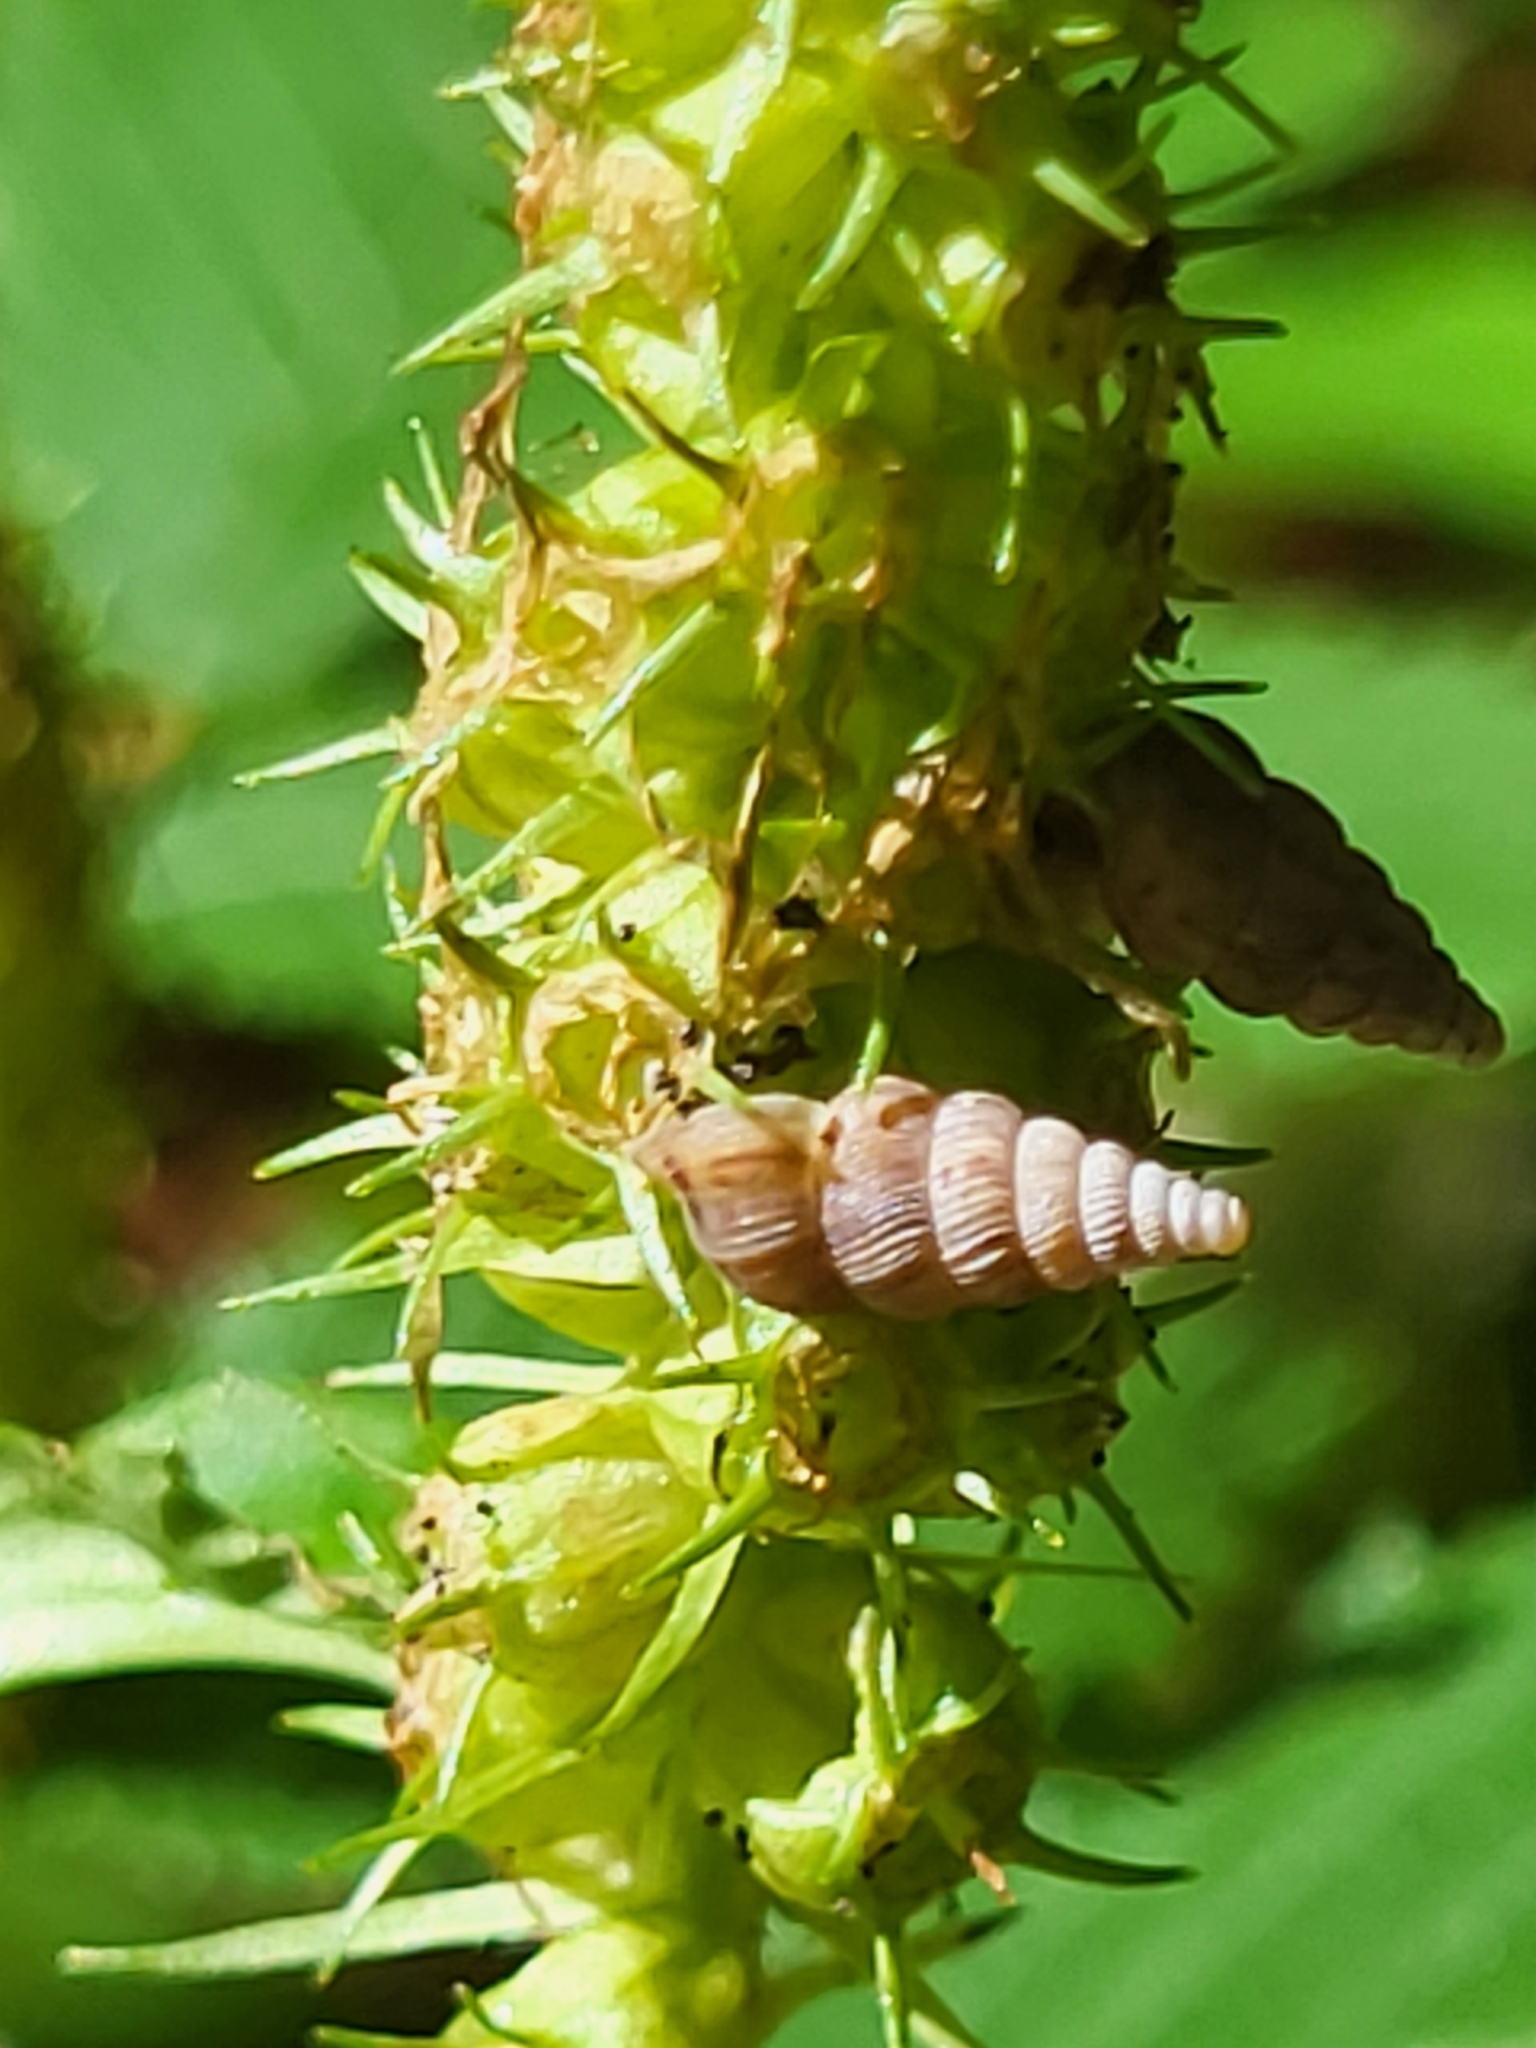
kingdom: Animalia
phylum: Mollusca
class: Gastropoda
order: Architaenioglossa
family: Cochlostomatidae
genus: Cochlostoma
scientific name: Cochlostoma septemspirale
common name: Seven-whorl snail
